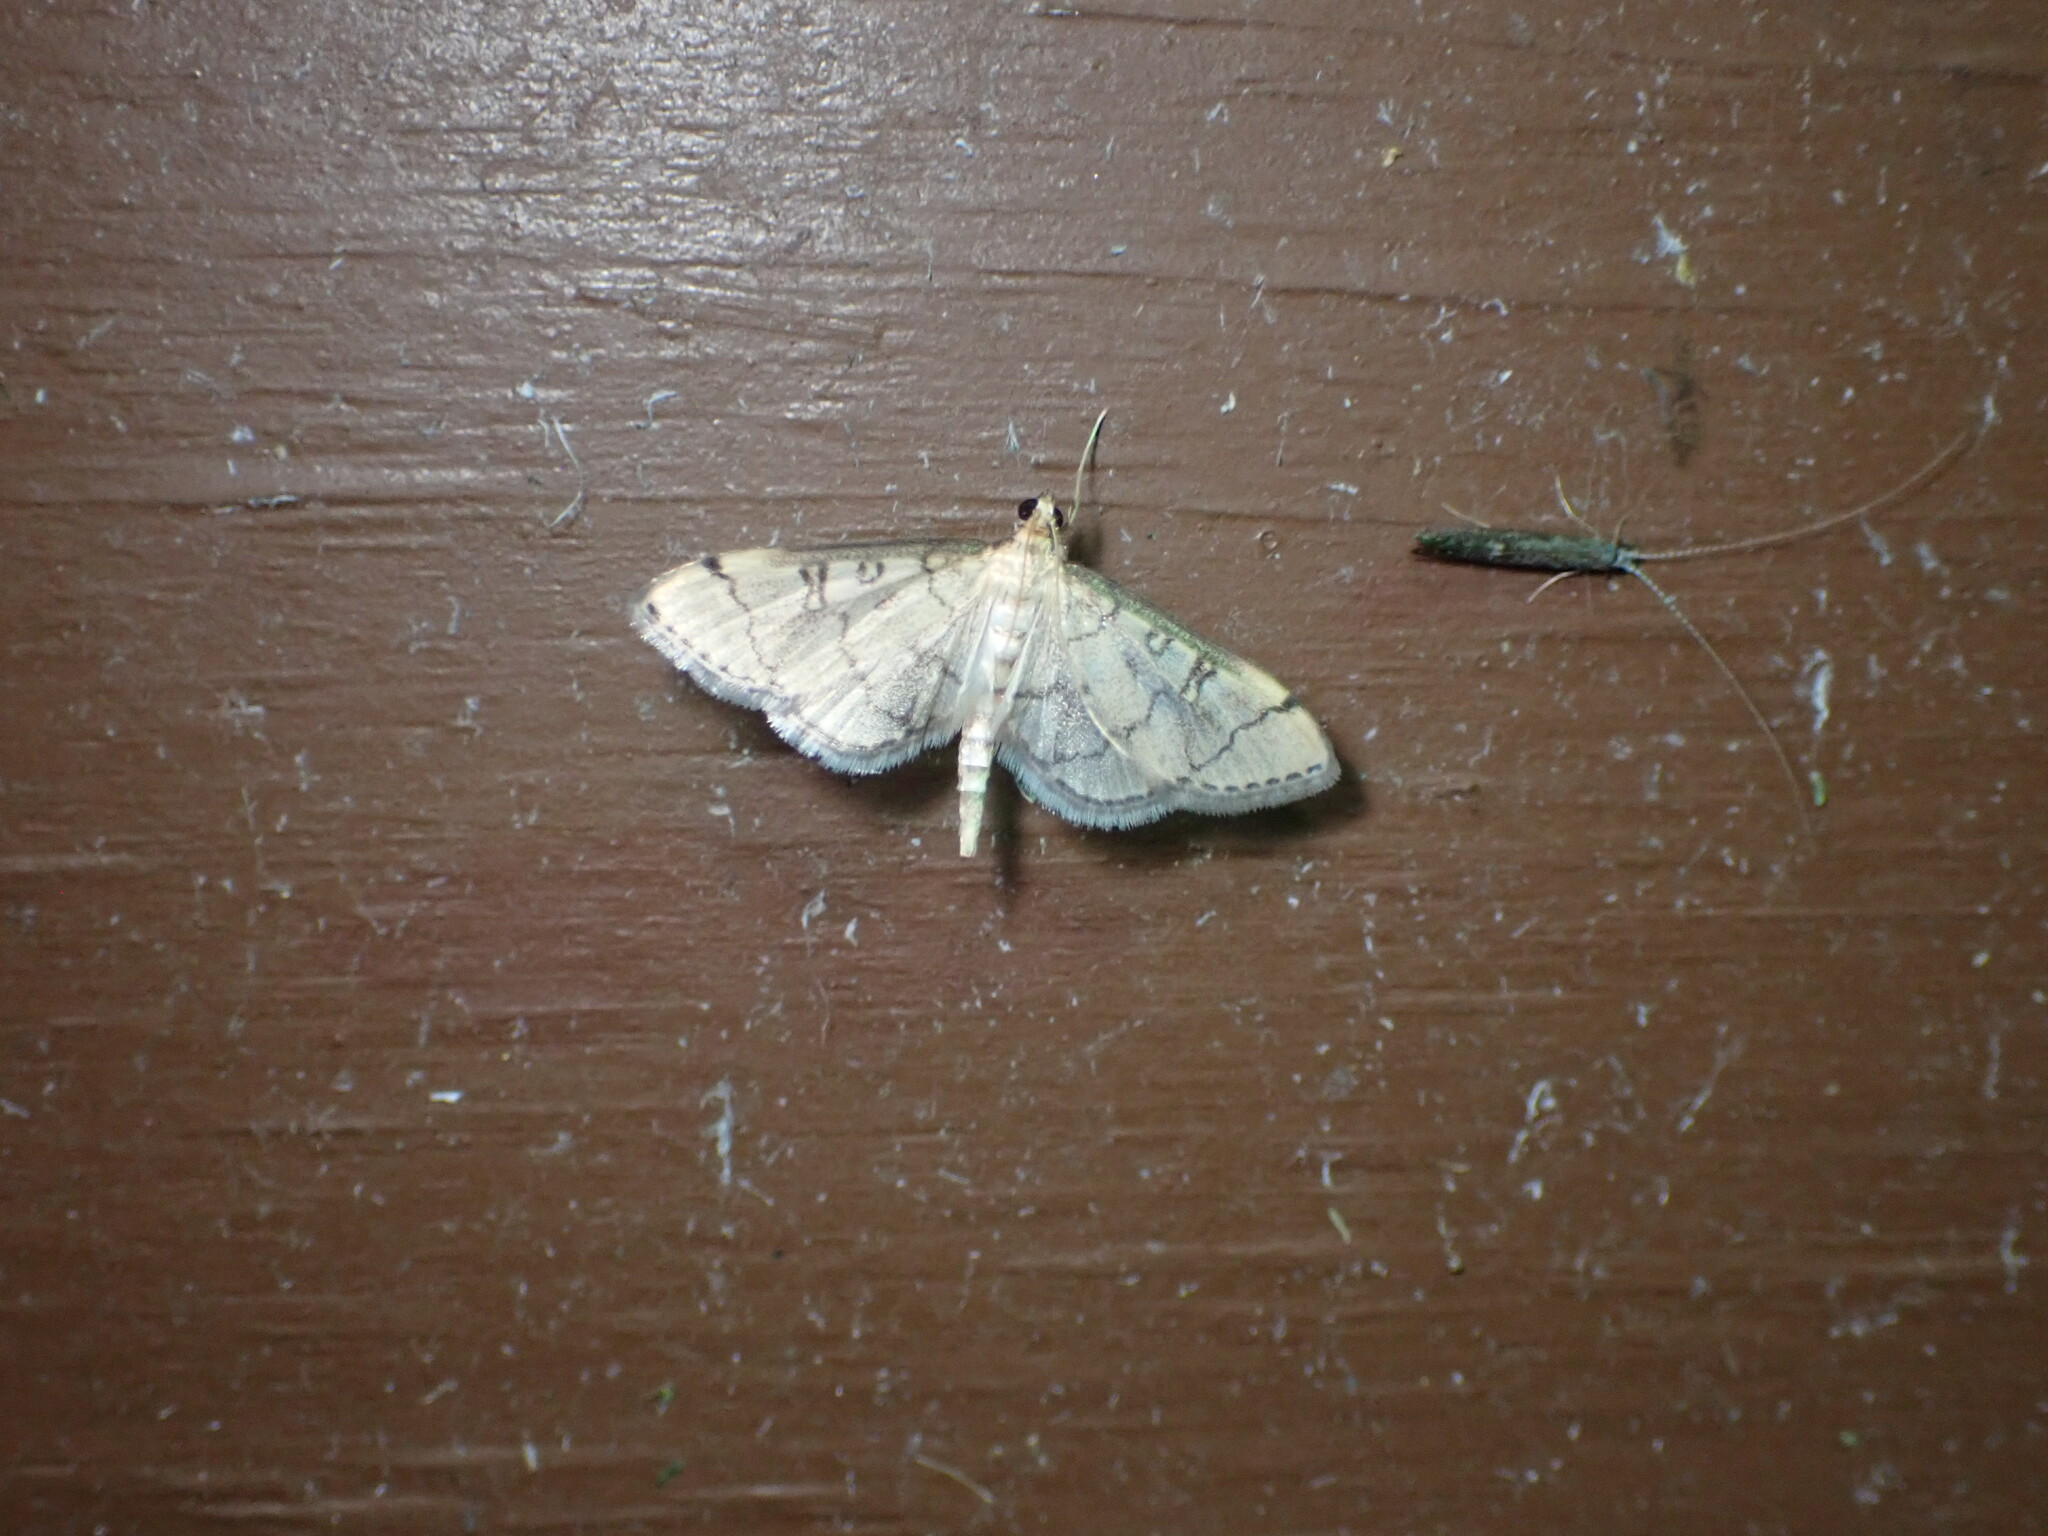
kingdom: Animalia
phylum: Arthropoda
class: Insecta
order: Lepidoptera
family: Crambidae
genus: Lamprosema
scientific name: Lamprosema Blepharomastix ranalis
